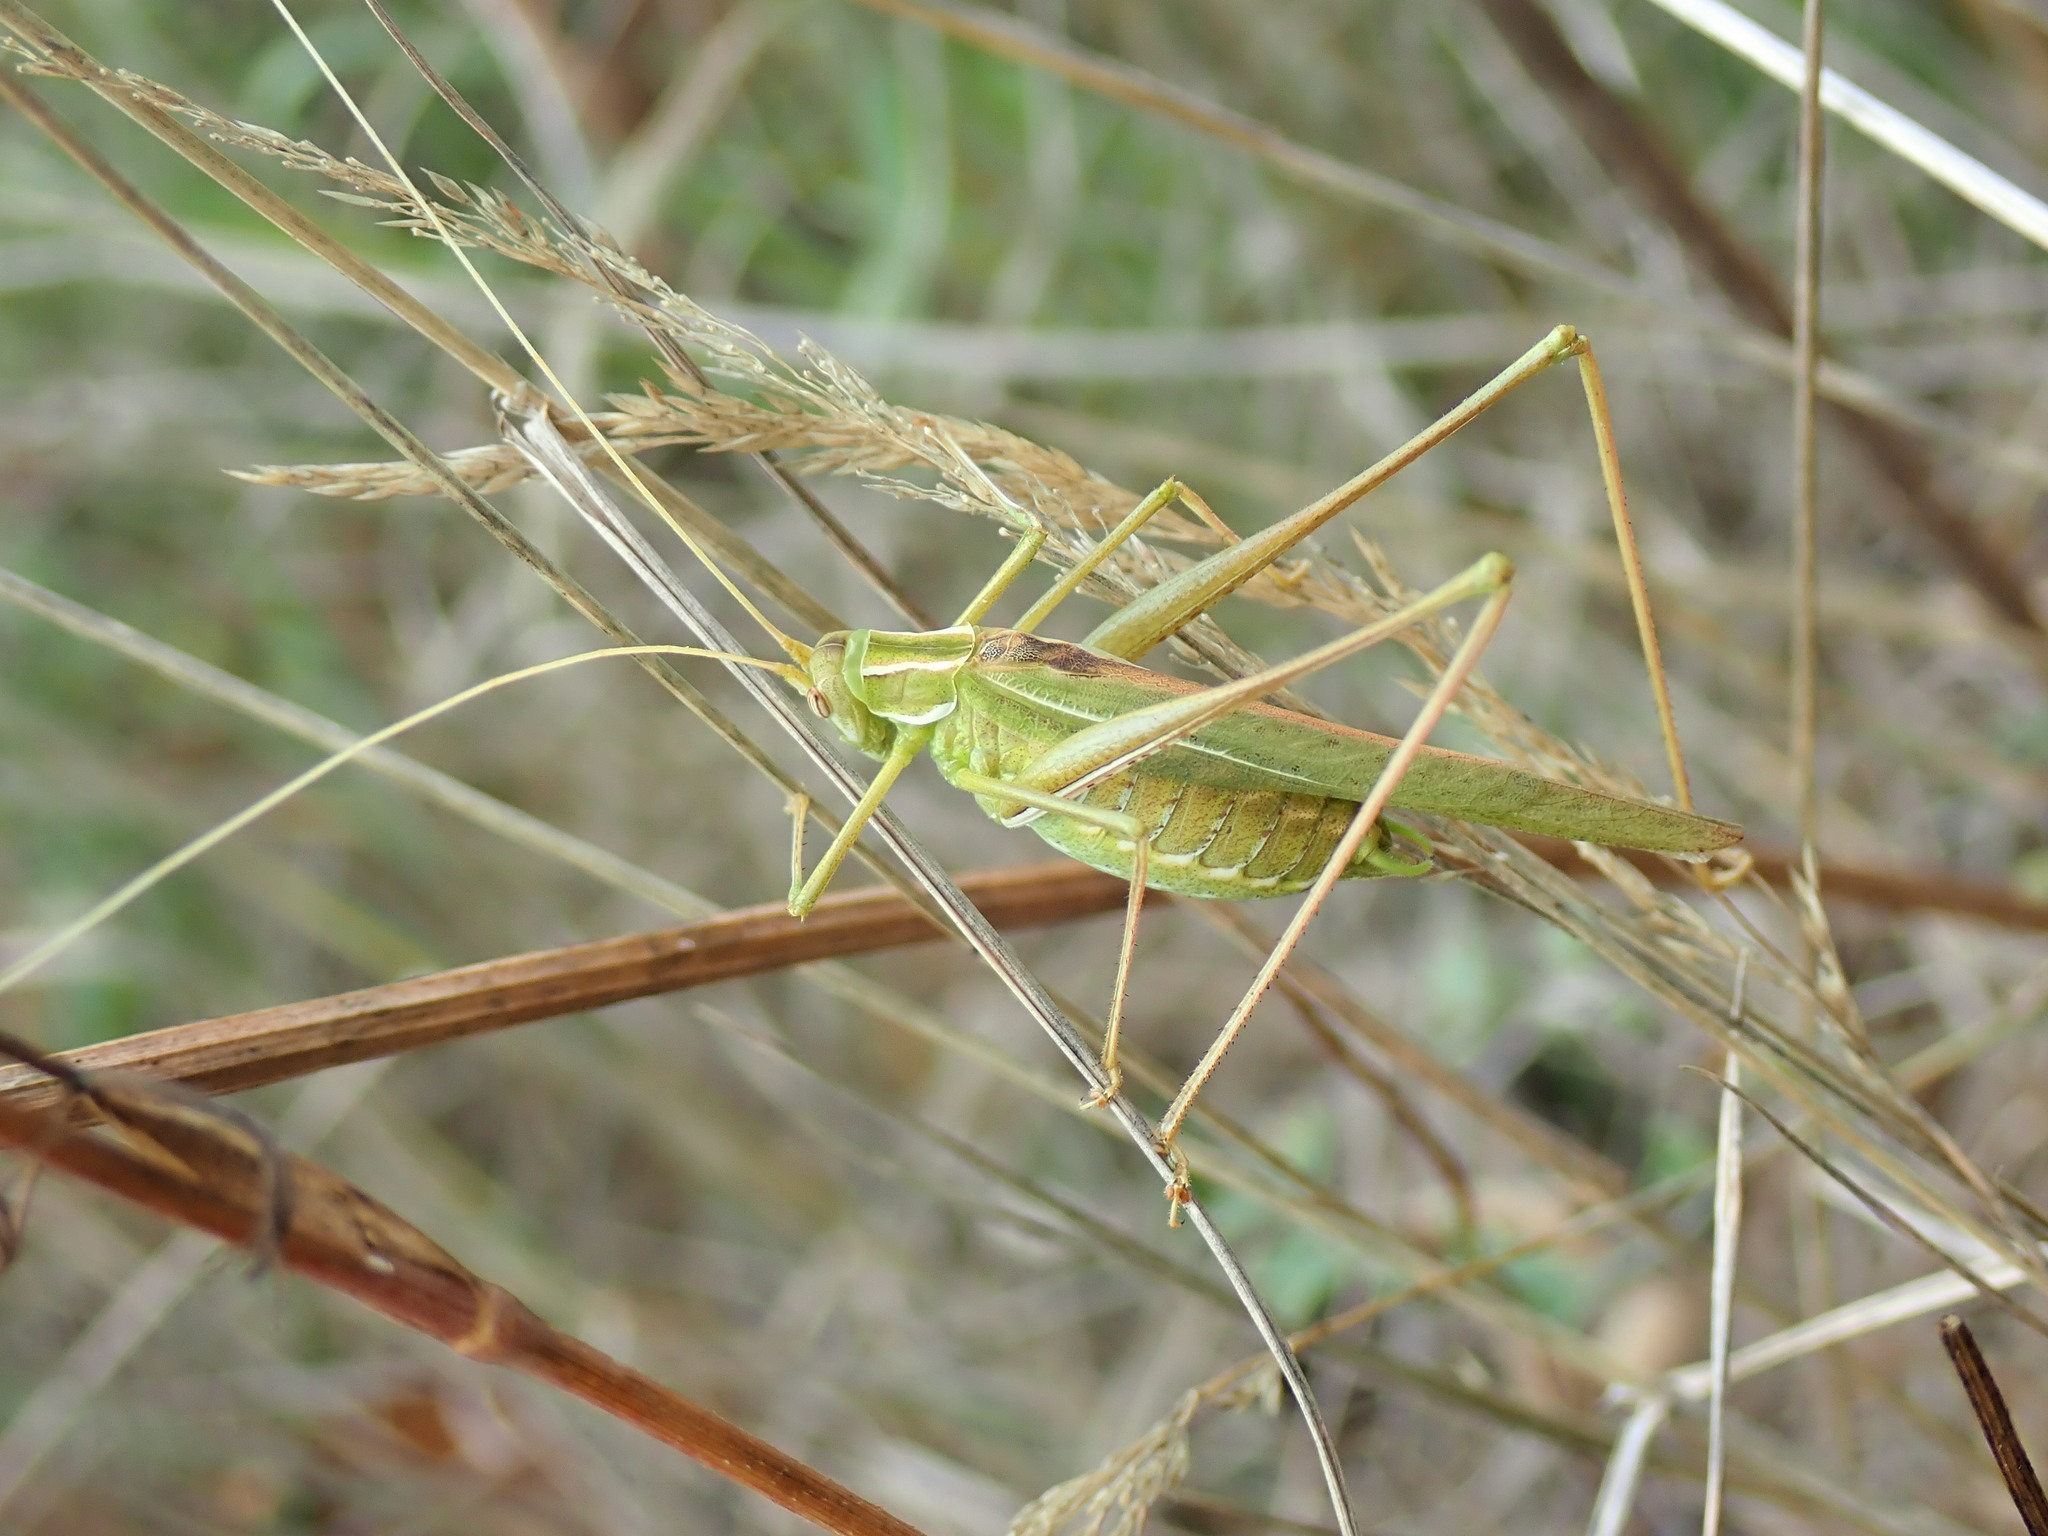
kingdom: Animalia
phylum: Arthropoda
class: Insecta
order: Orthoptera
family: Tettigoniidae
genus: Tylopsis
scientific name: Tylopsis lilifolia
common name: Lily bush-cricket
